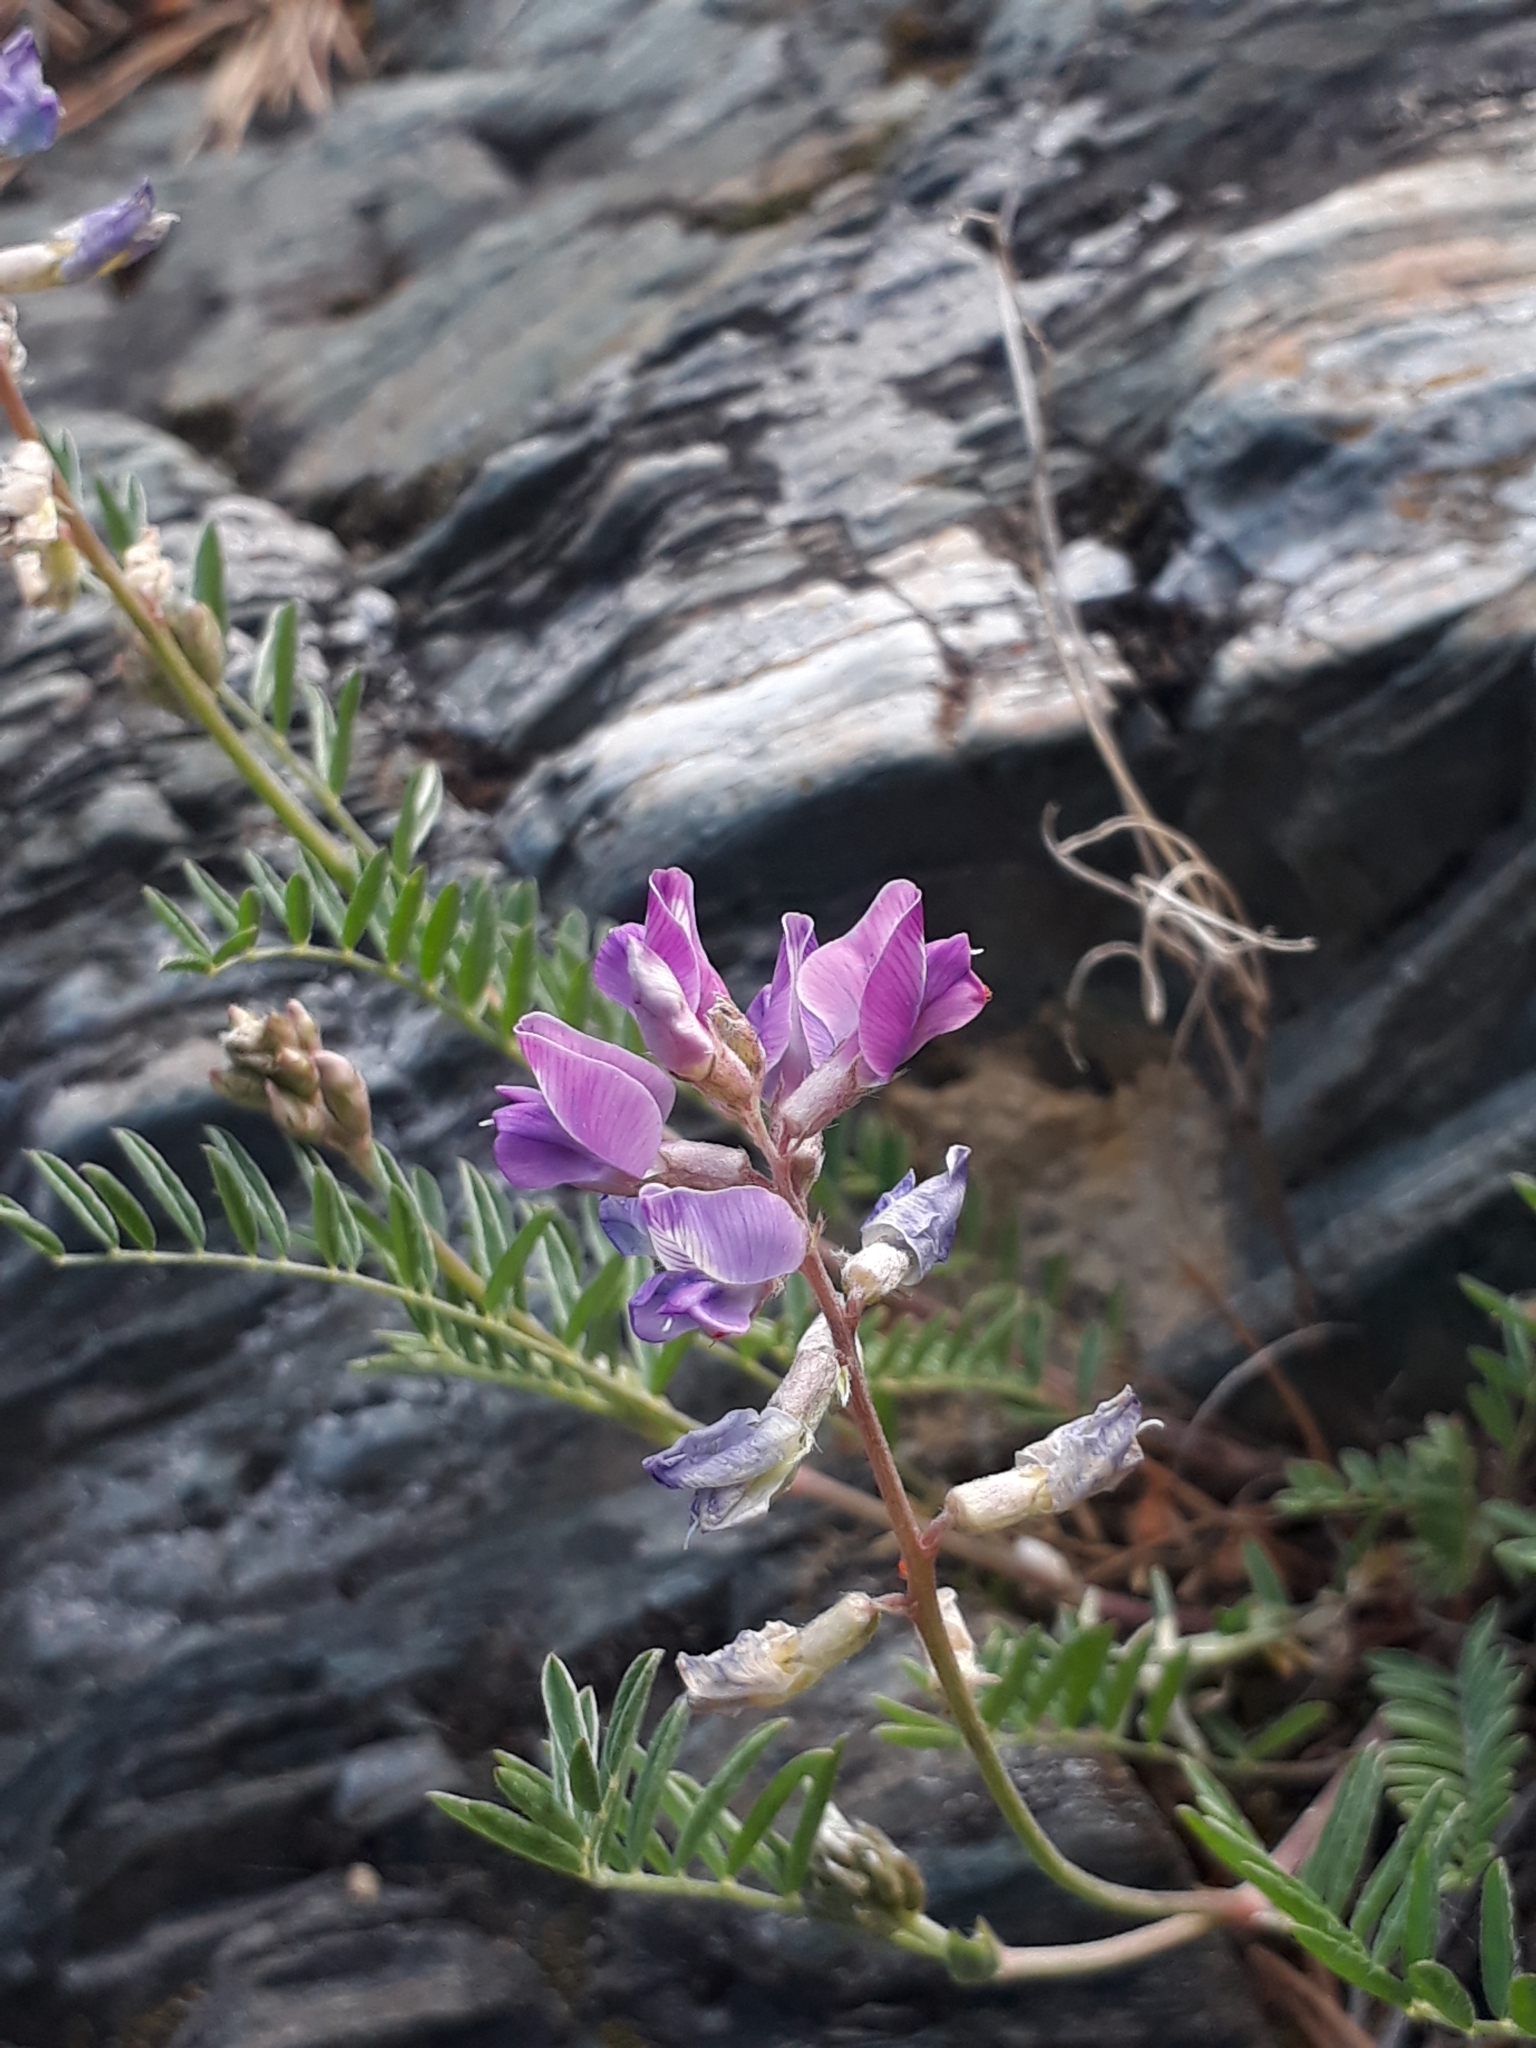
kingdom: Plantae
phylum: Tracheophyta
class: Magnoliopsida
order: Fabales
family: Fabaceae
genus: Oxytropis
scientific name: Oxytropis floribunda
